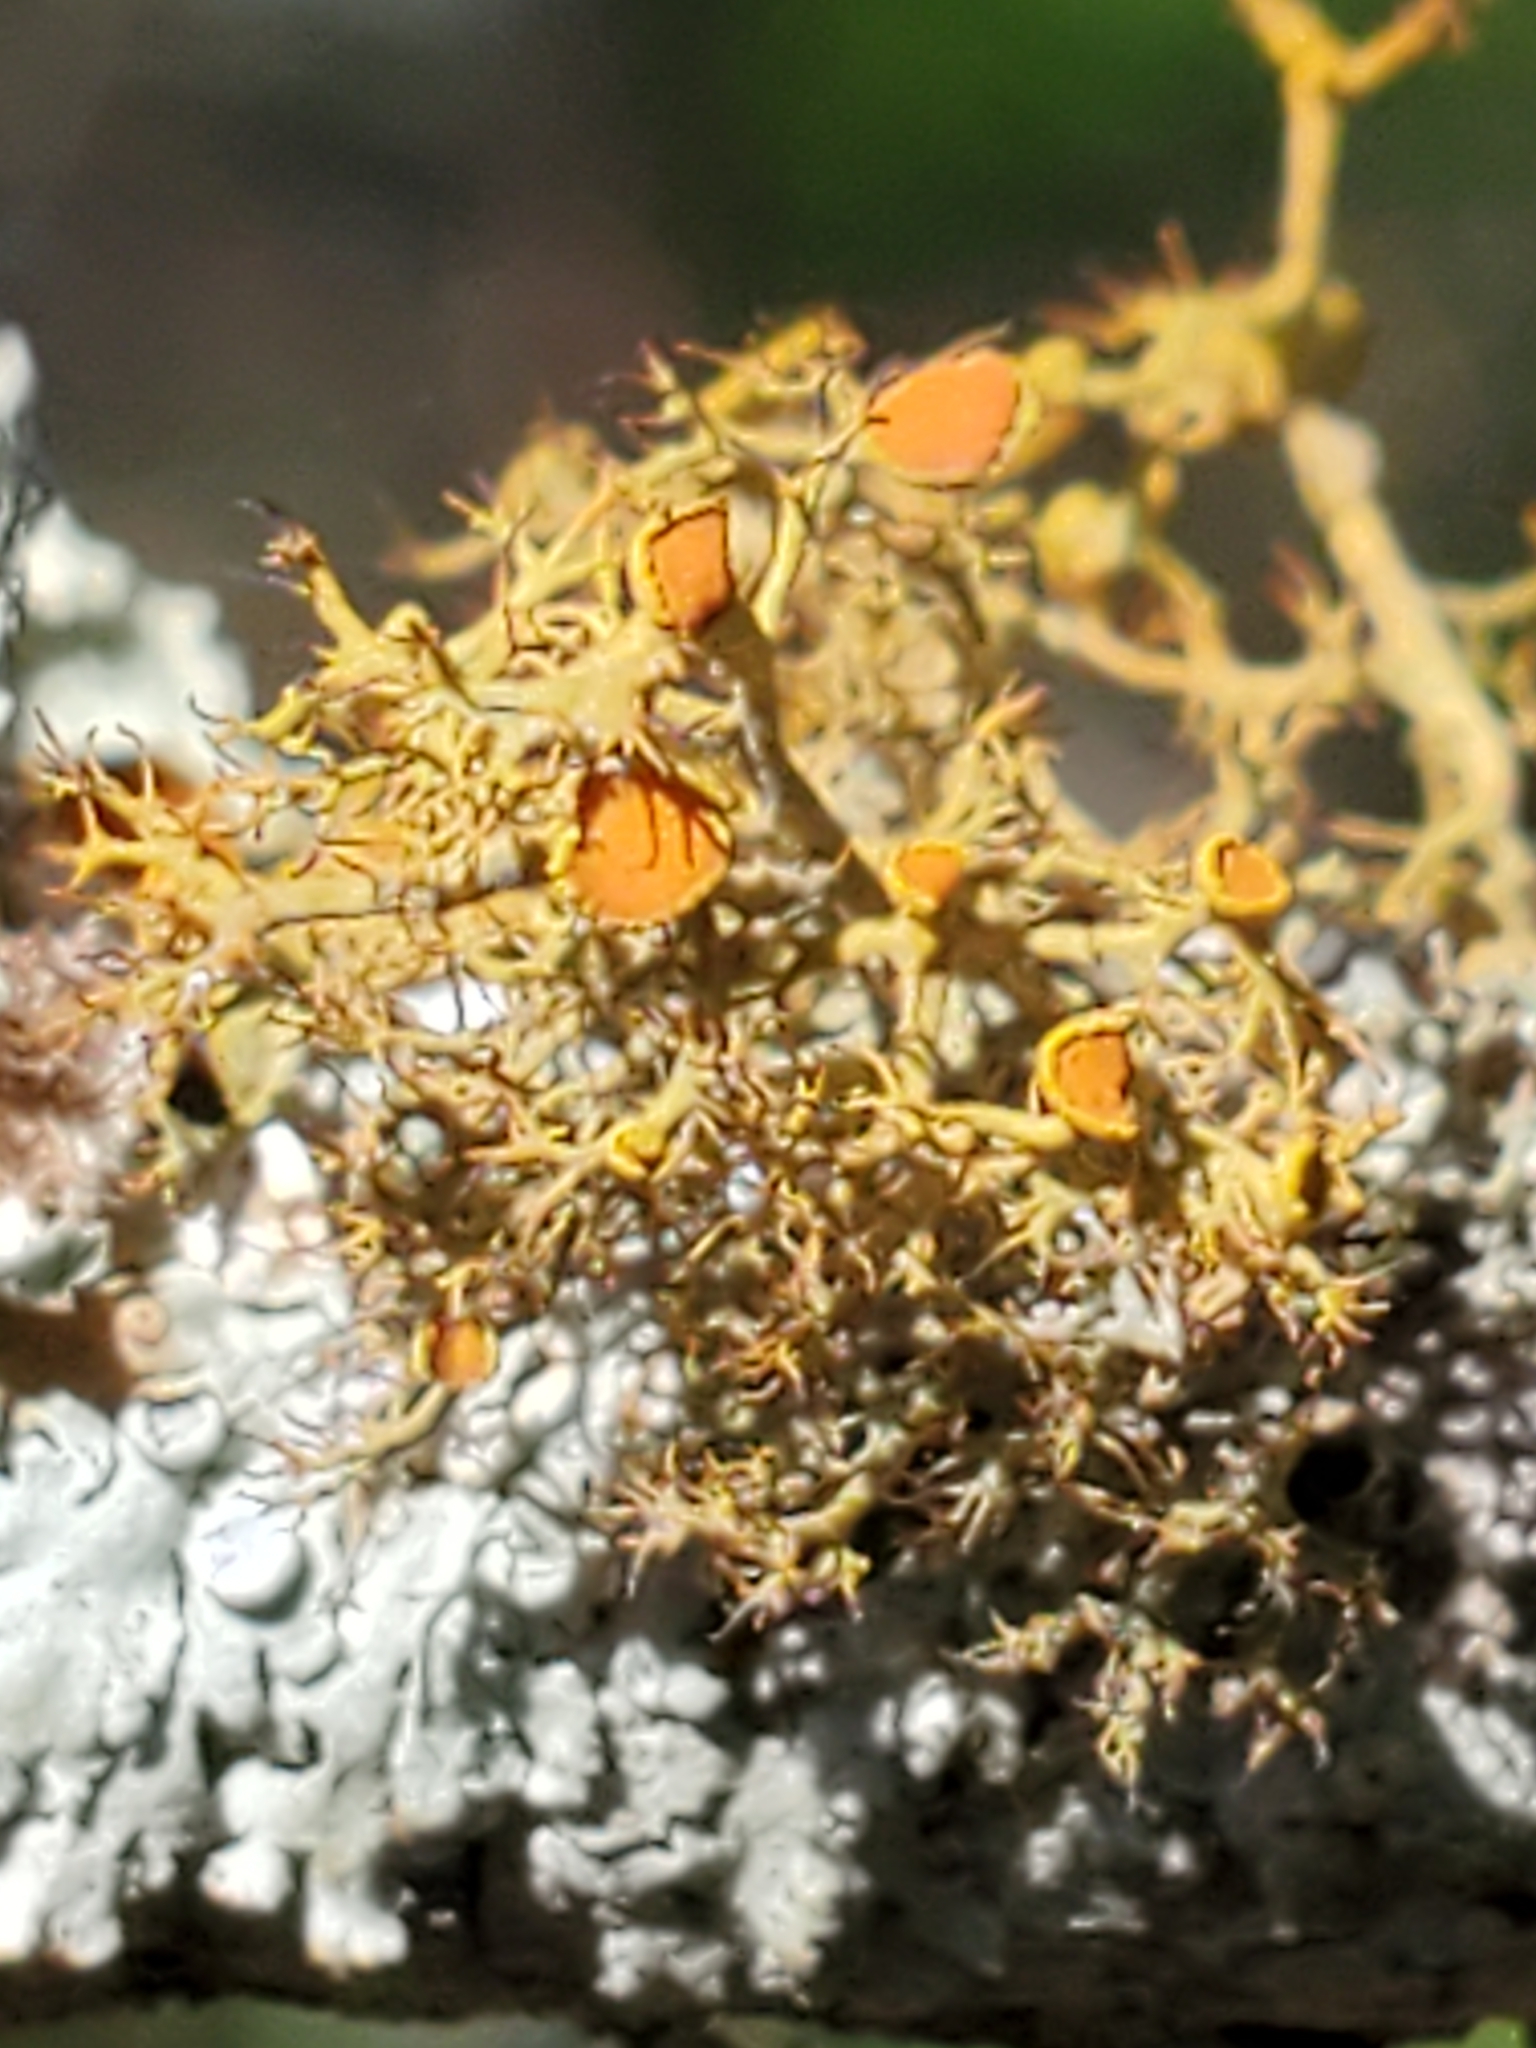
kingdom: Fungi
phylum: Ascomycota
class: Lecanoromycetes
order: Teloschistales
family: Teloschistaceae
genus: Teloschistes
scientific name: Teloschistes exilis
